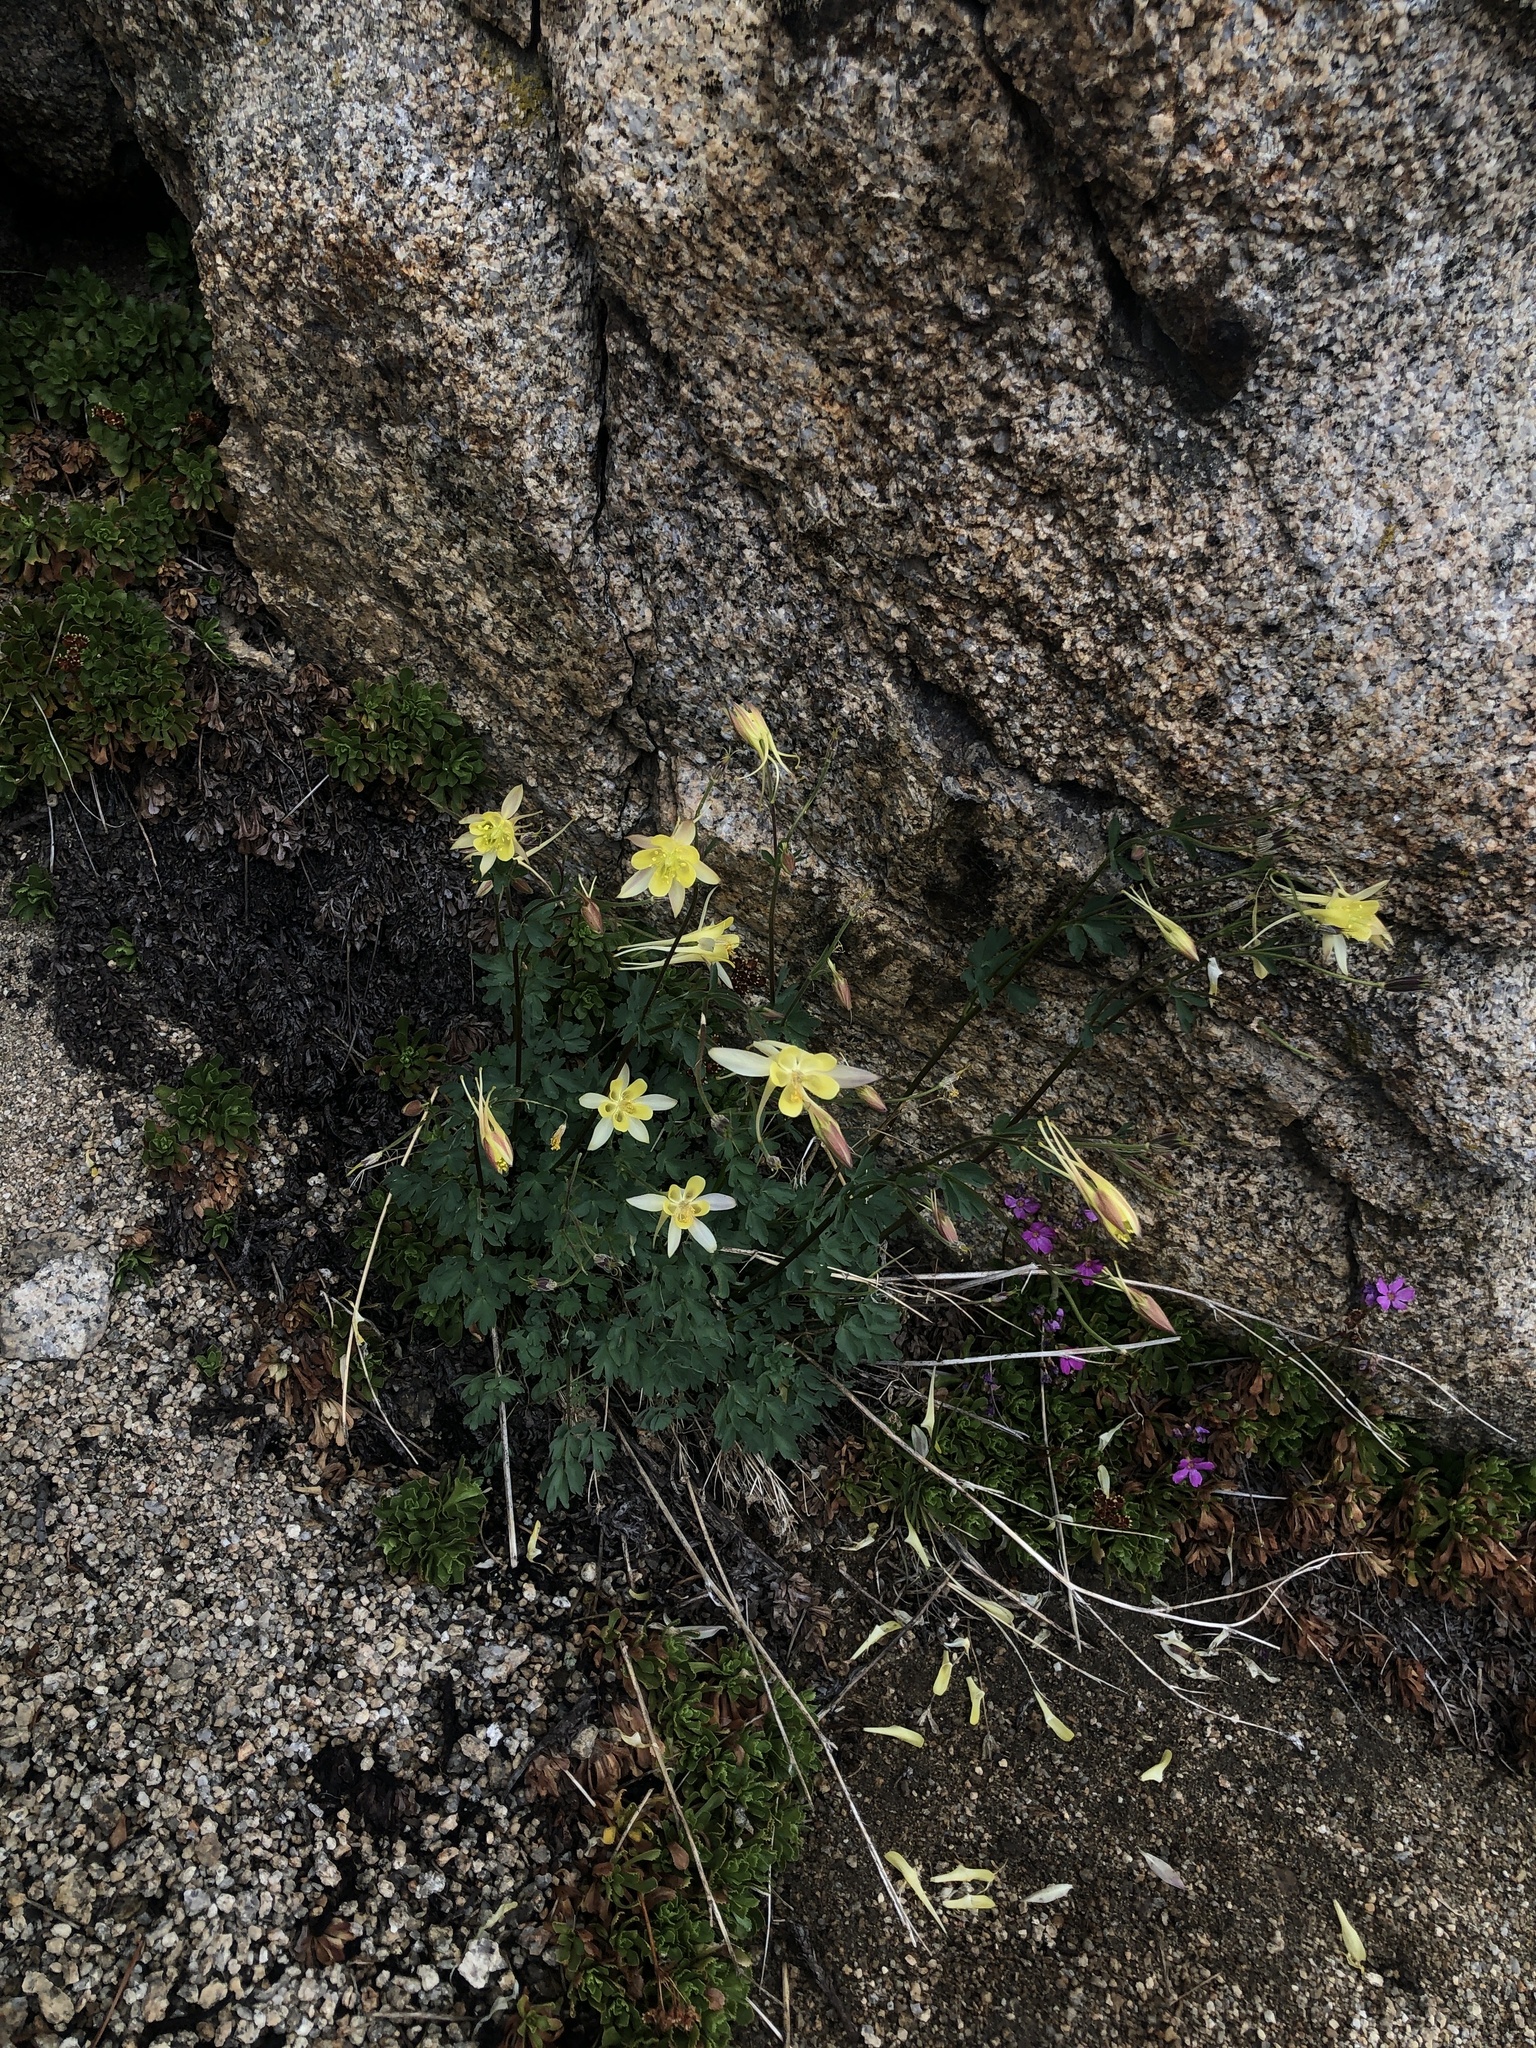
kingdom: Plantae
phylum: Tracheophyta
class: Magnoliopsida
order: Ranunculales
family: Ranunculaceae
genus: Aquilegia
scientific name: Aquilegia pubescens
